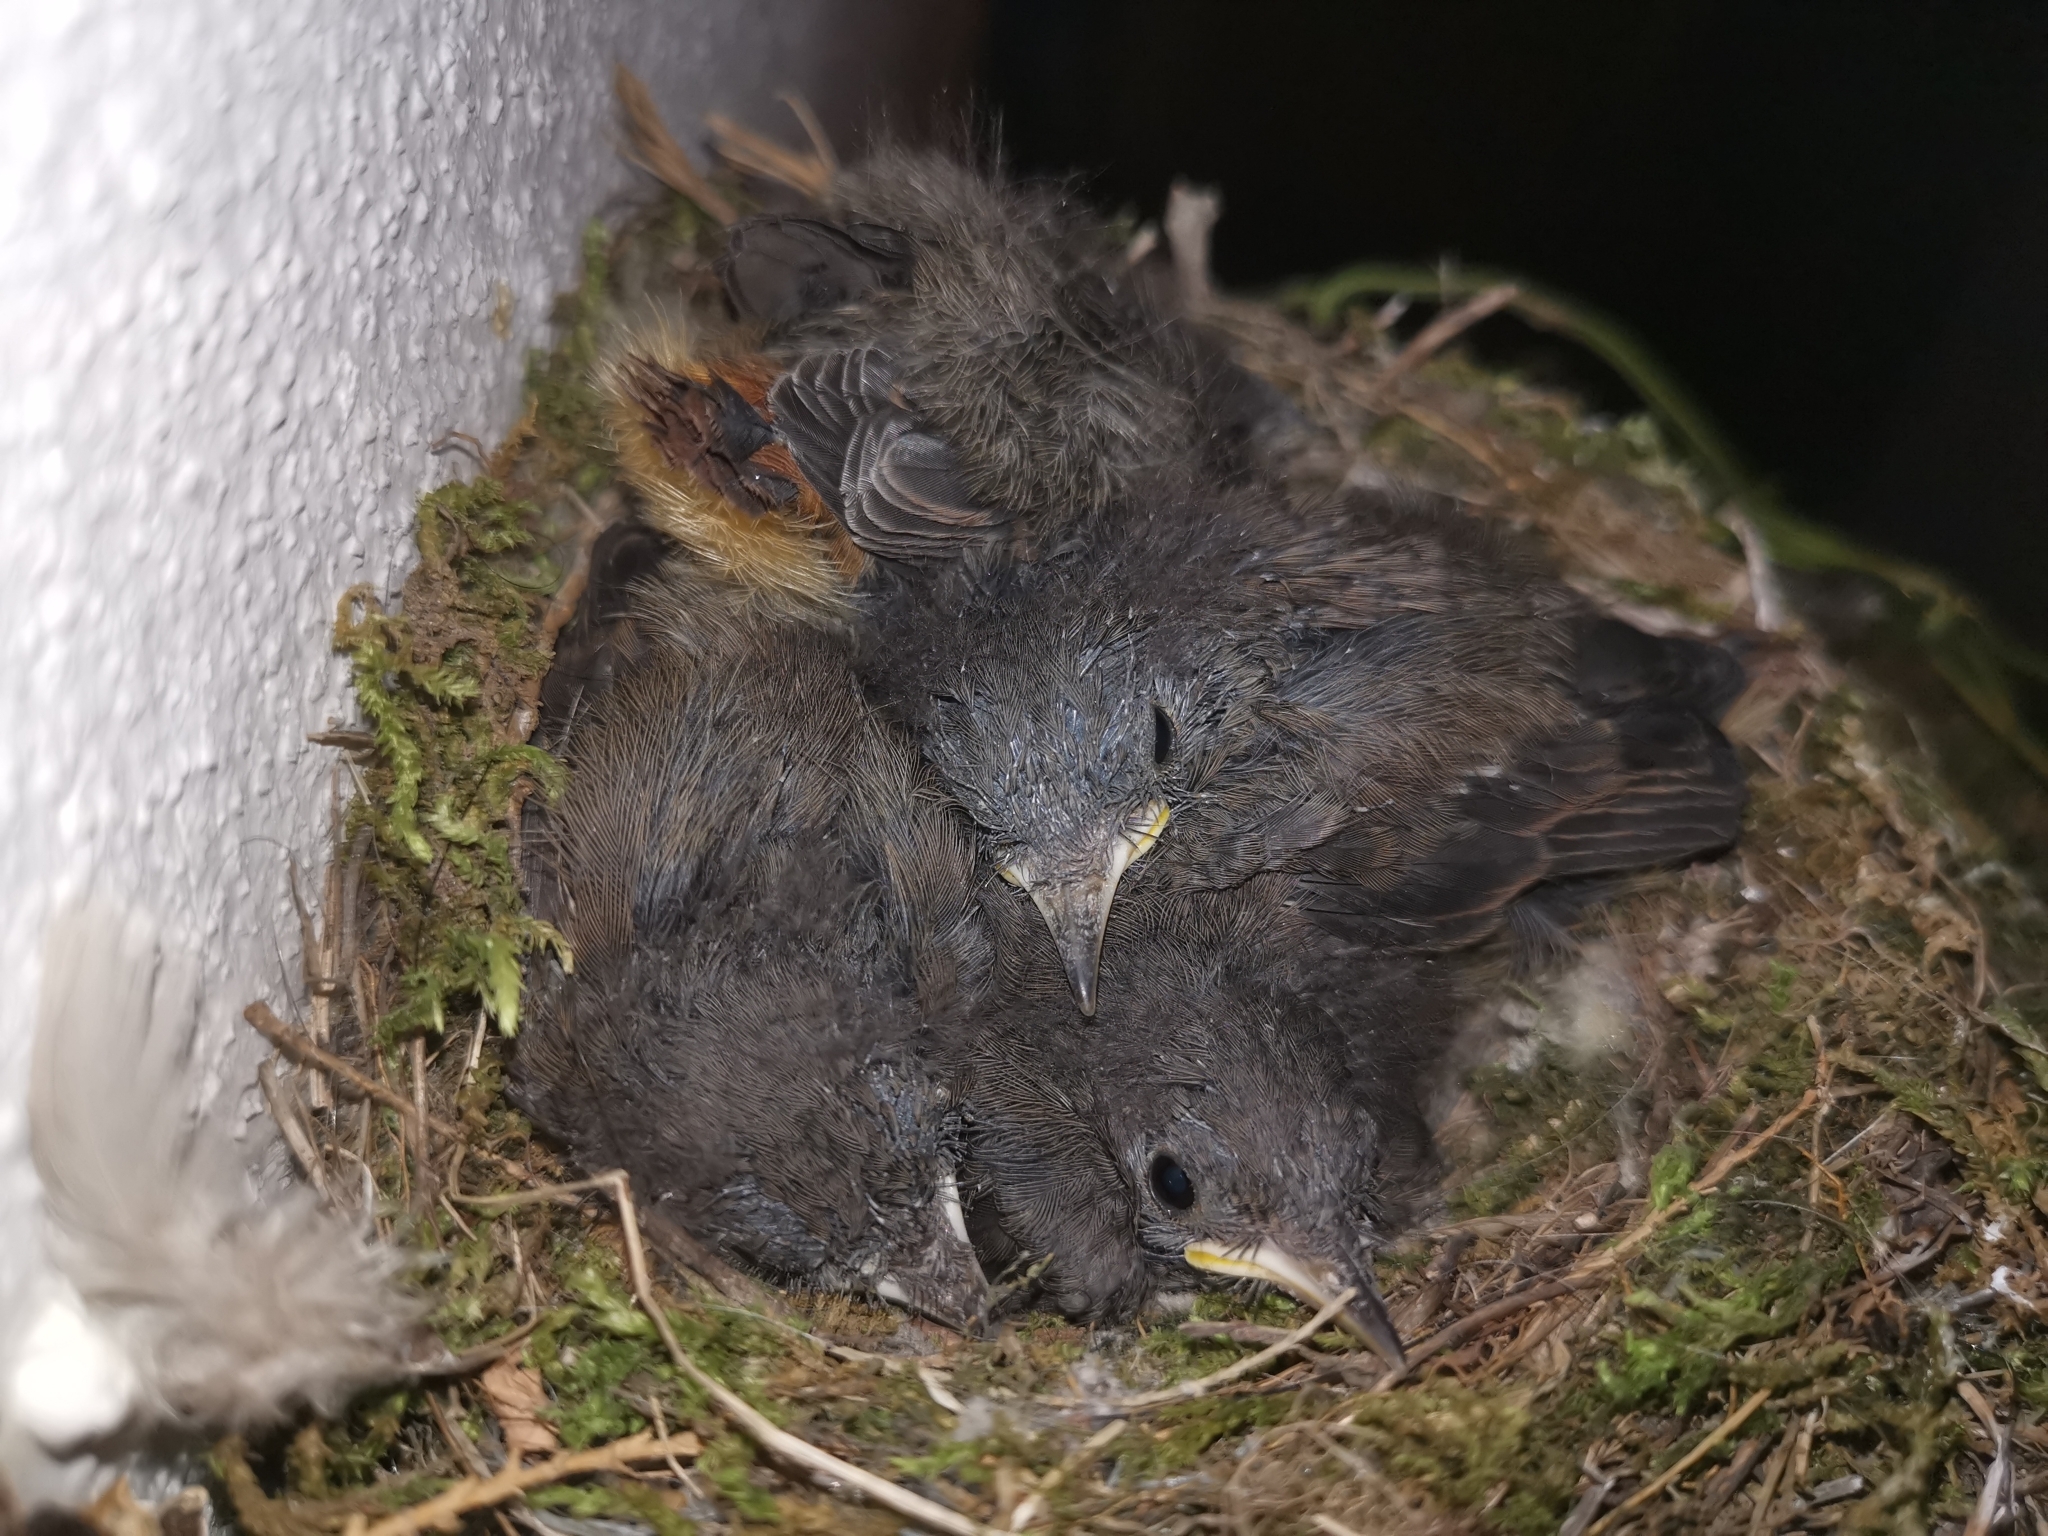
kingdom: Animalia
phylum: Chordata
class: Aves
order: Passeriformes
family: Muscicapidae
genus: Phoenicurus
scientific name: Phoenicurus ochruros
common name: Black redstart
